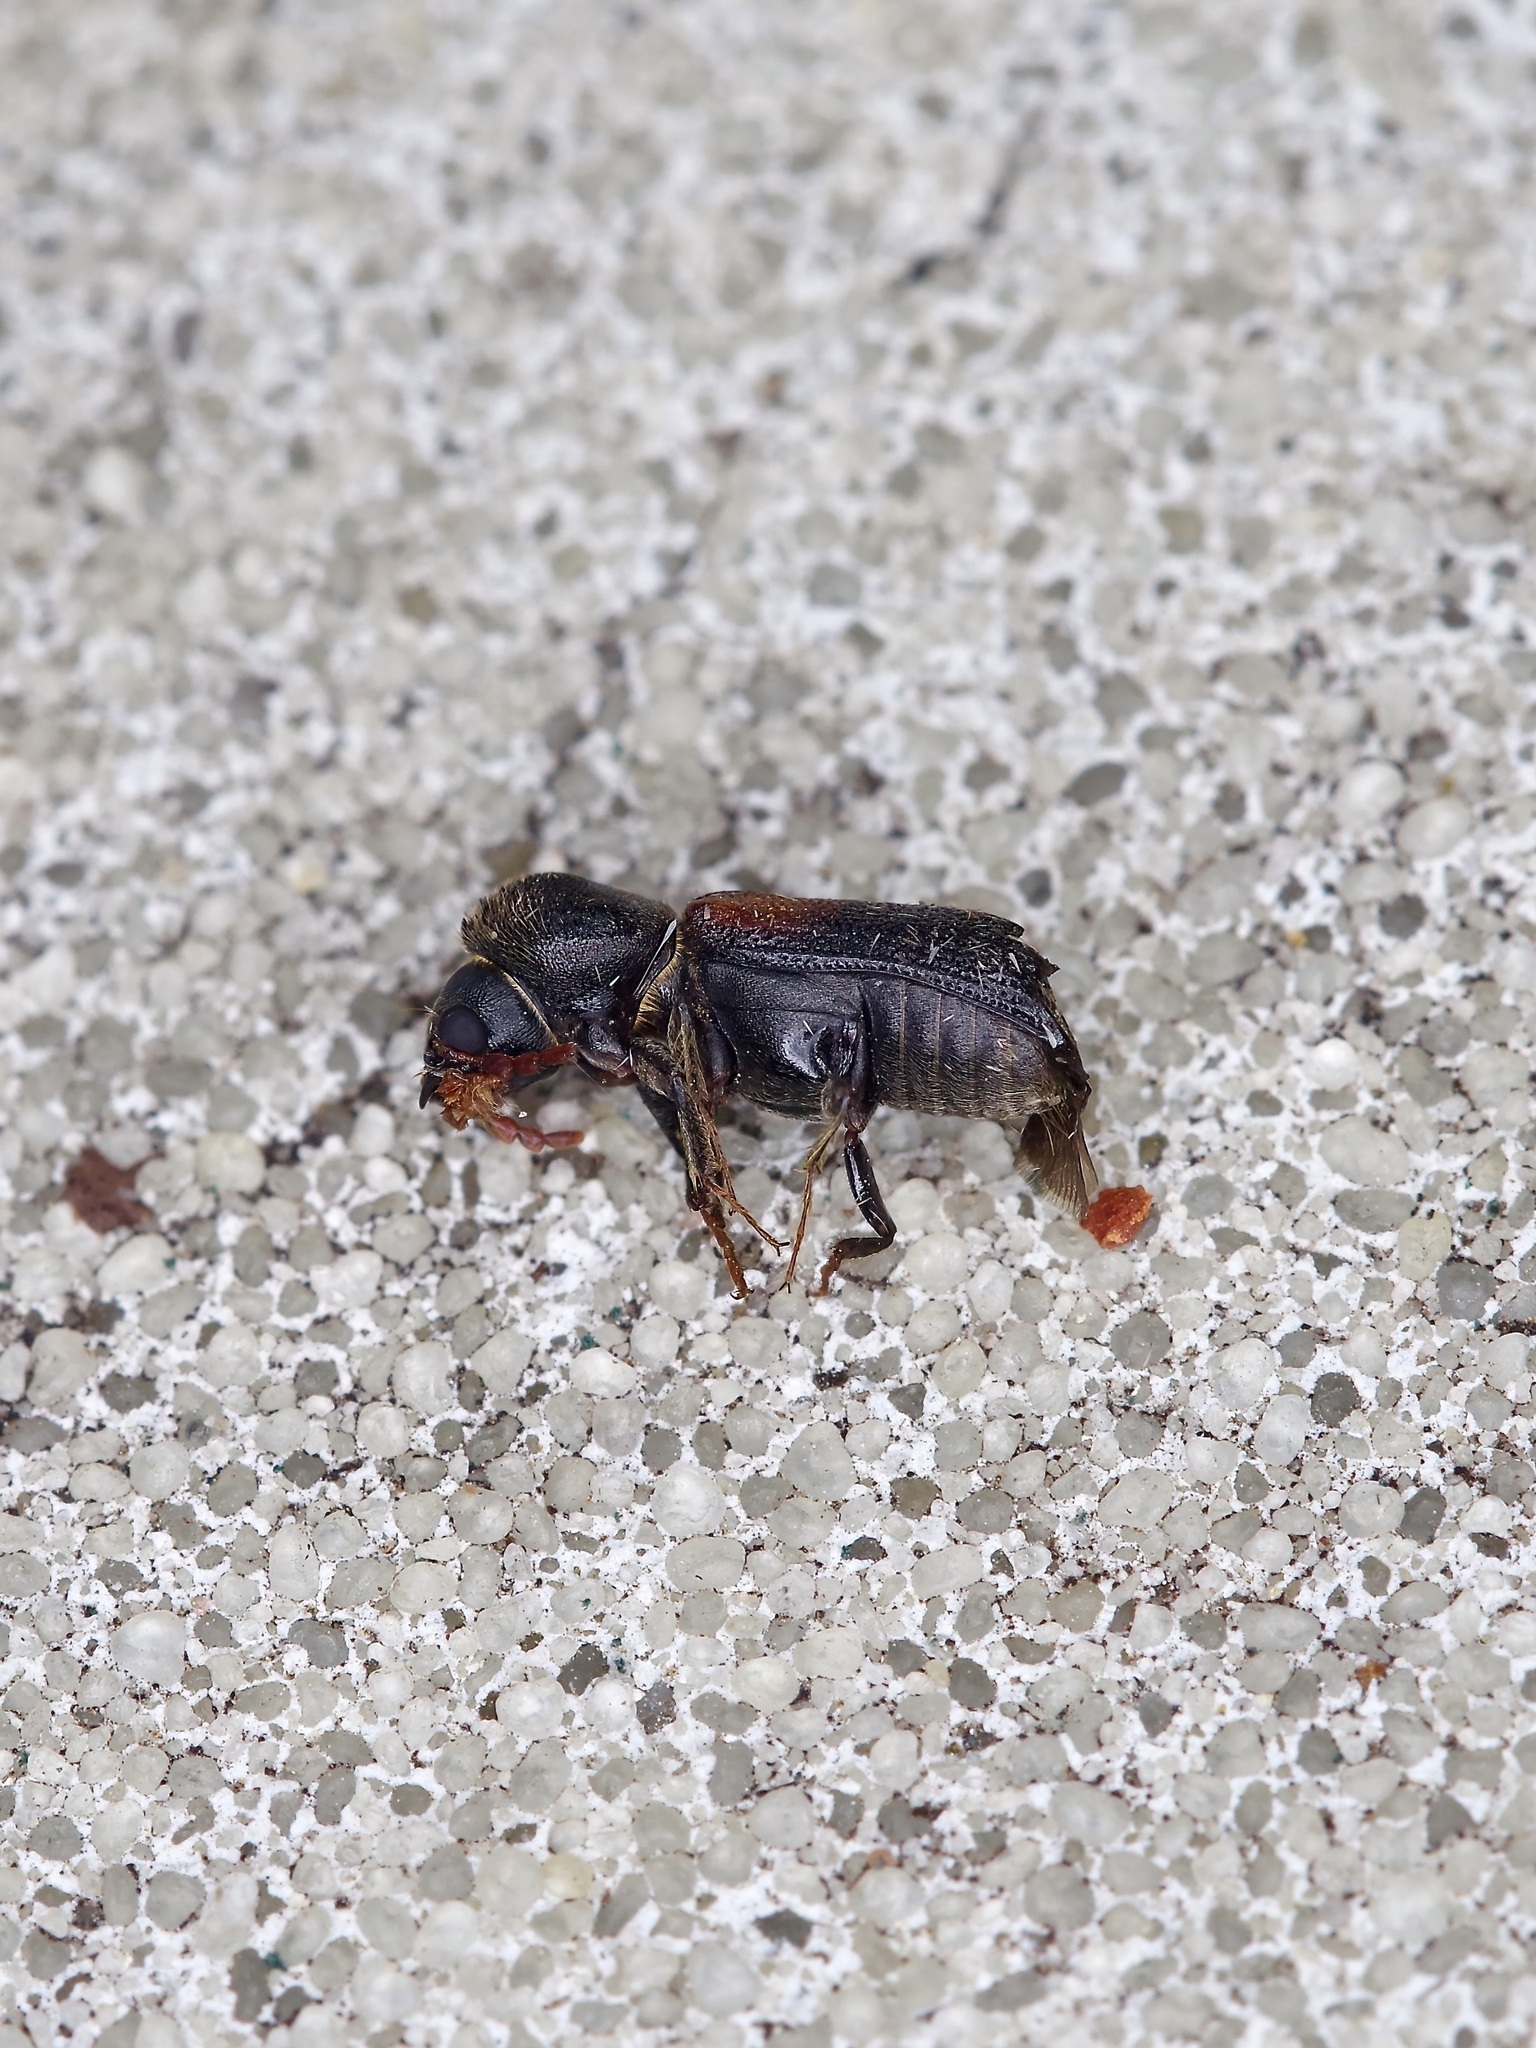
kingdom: Animalia
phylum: Arthropoda
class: Insecta
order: Coleoptera
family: Bostrichidae
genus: Xylobiops
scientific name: Xylobiops basilaris
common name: Red-shouldered bostrichid
